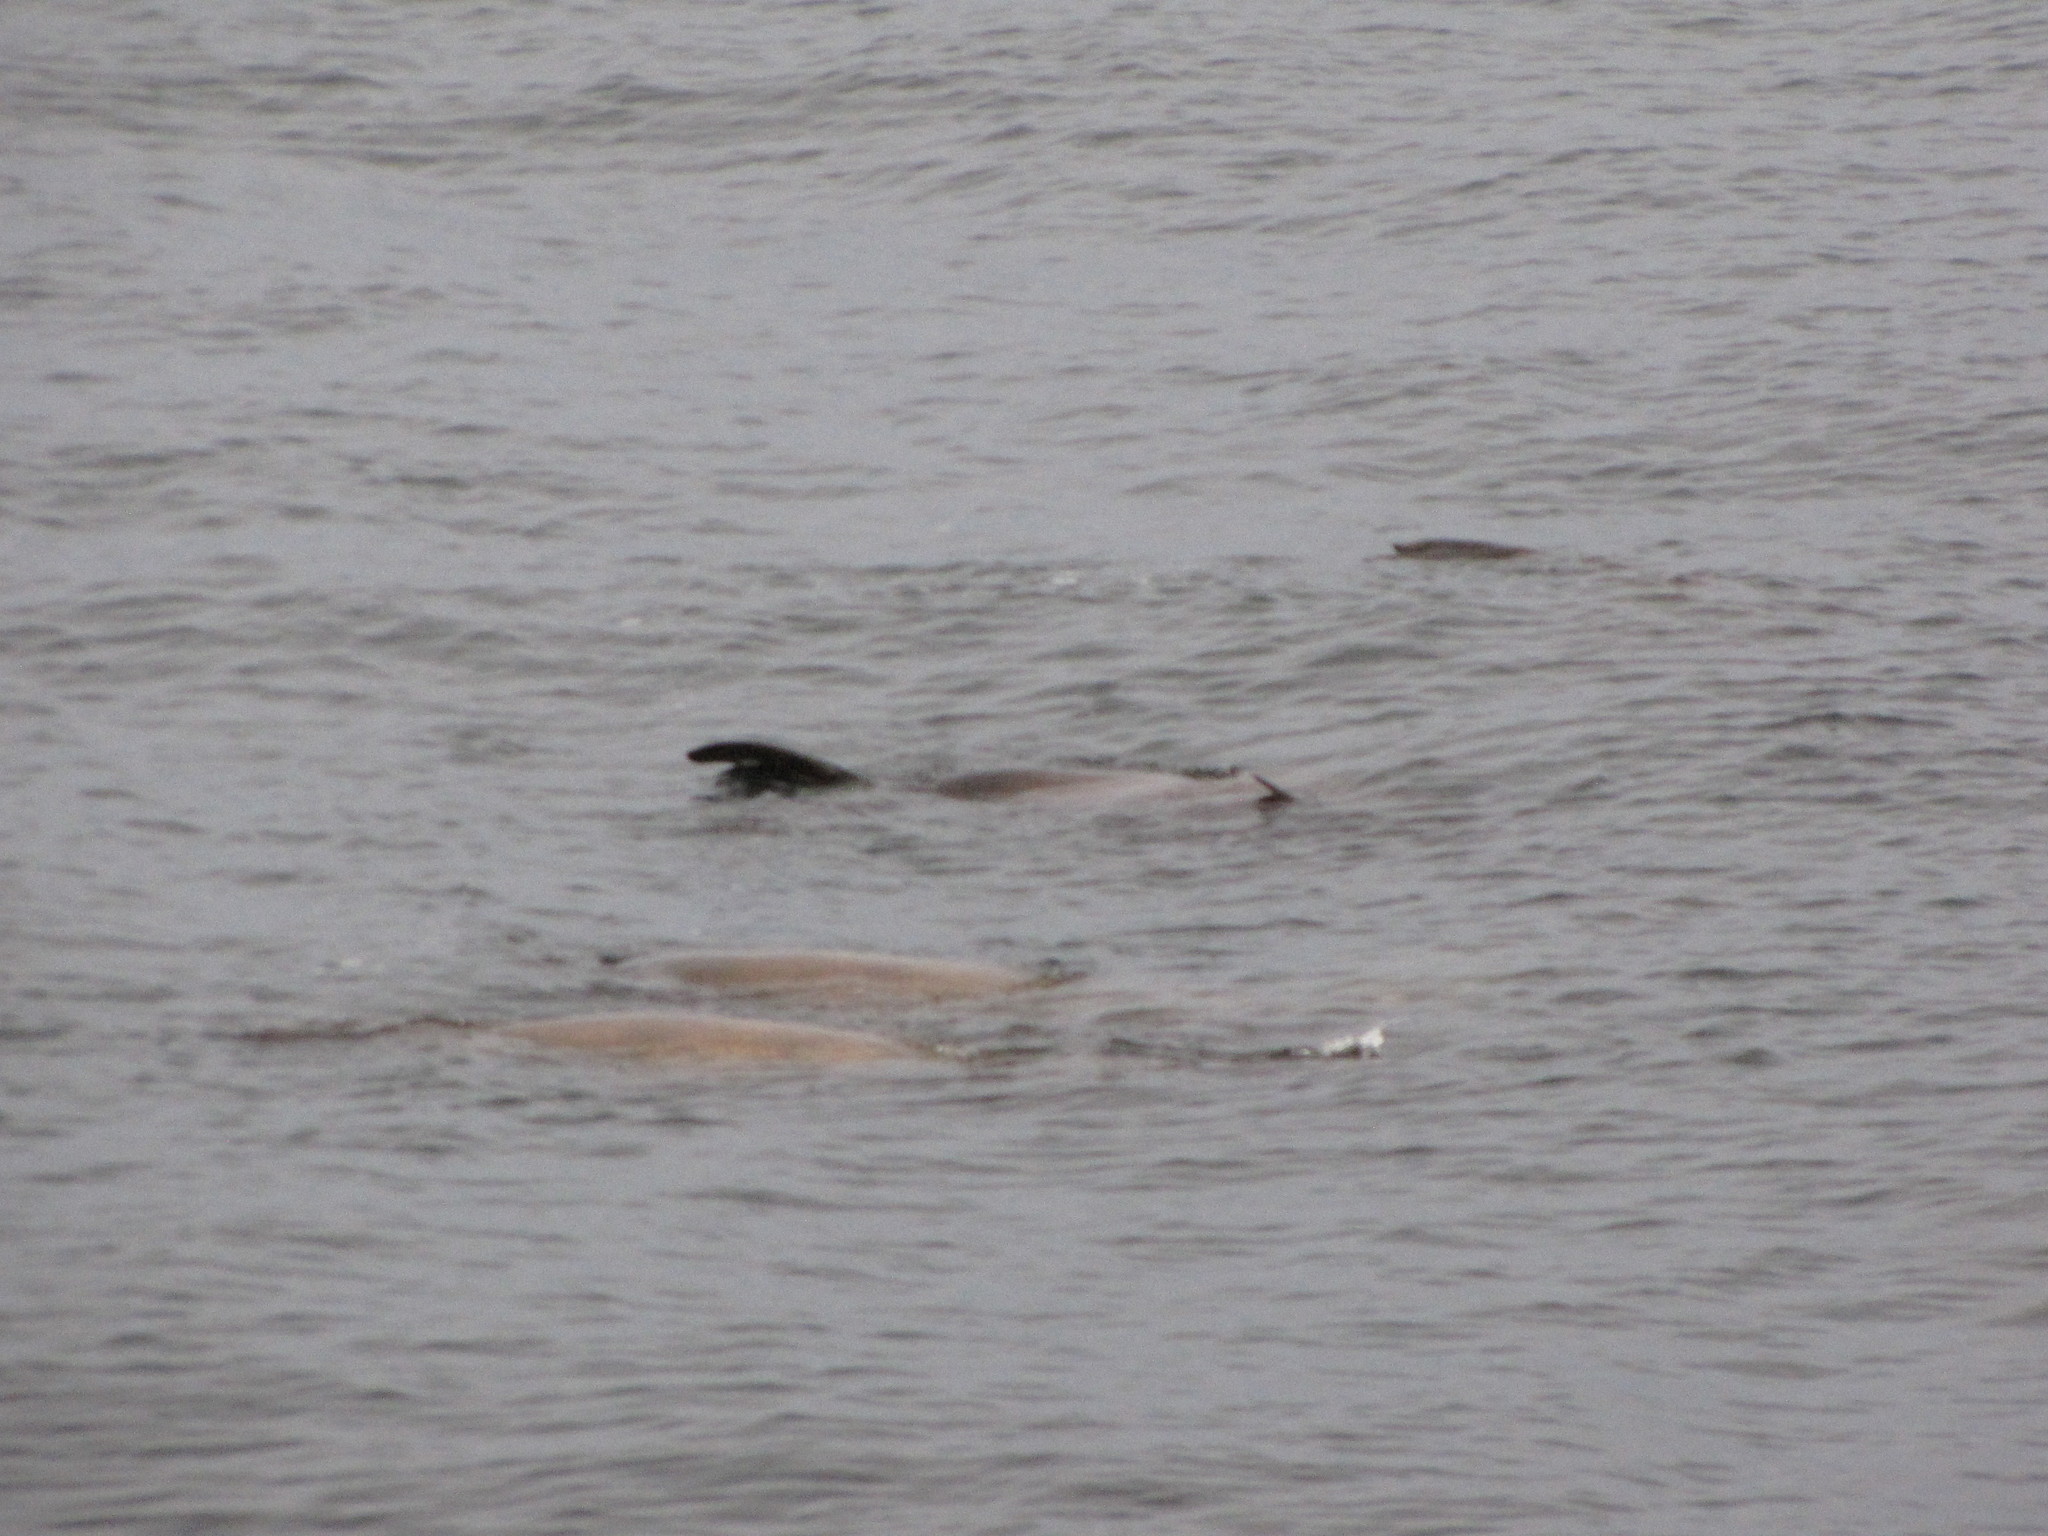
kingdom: Animalia
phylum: Chordata
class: Mammalia
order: Carnivora
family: Otariidae
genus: Eumetopias
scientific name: Eumetopias jubatus
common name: Steller sea lion
